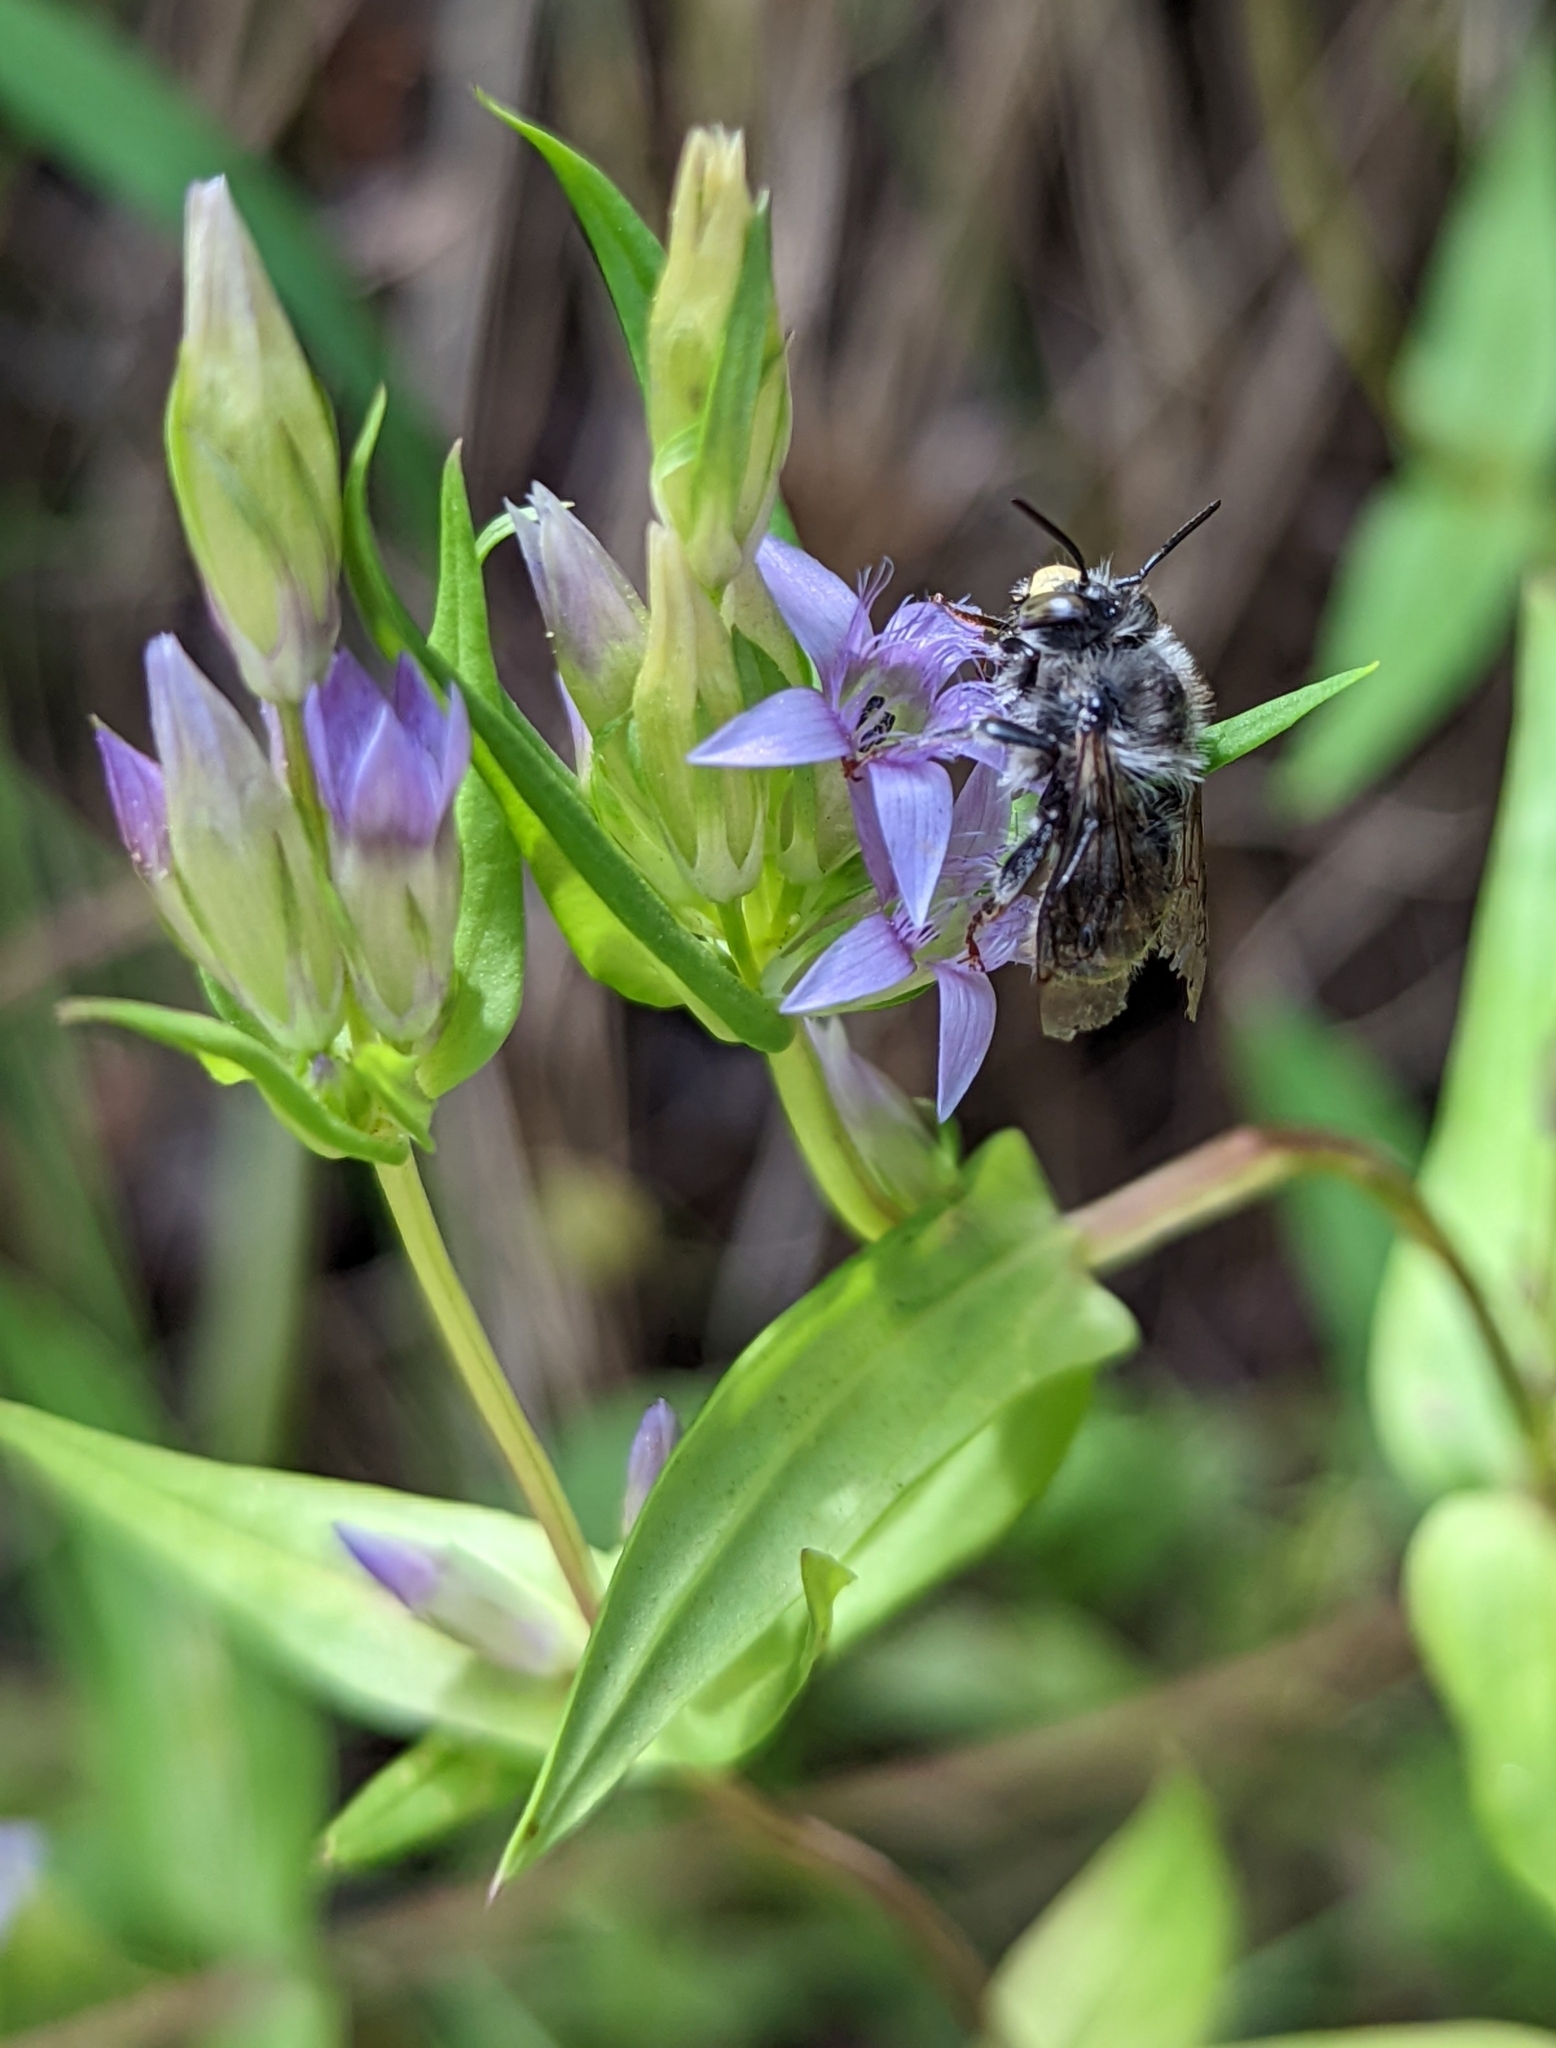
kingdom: Plantae
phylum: Tracheophyta
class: Magnoliopsida
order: Gentianales
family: Gentianaceae
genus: Gentianella
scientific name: Gentianella amarella
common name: Autumn gentian
